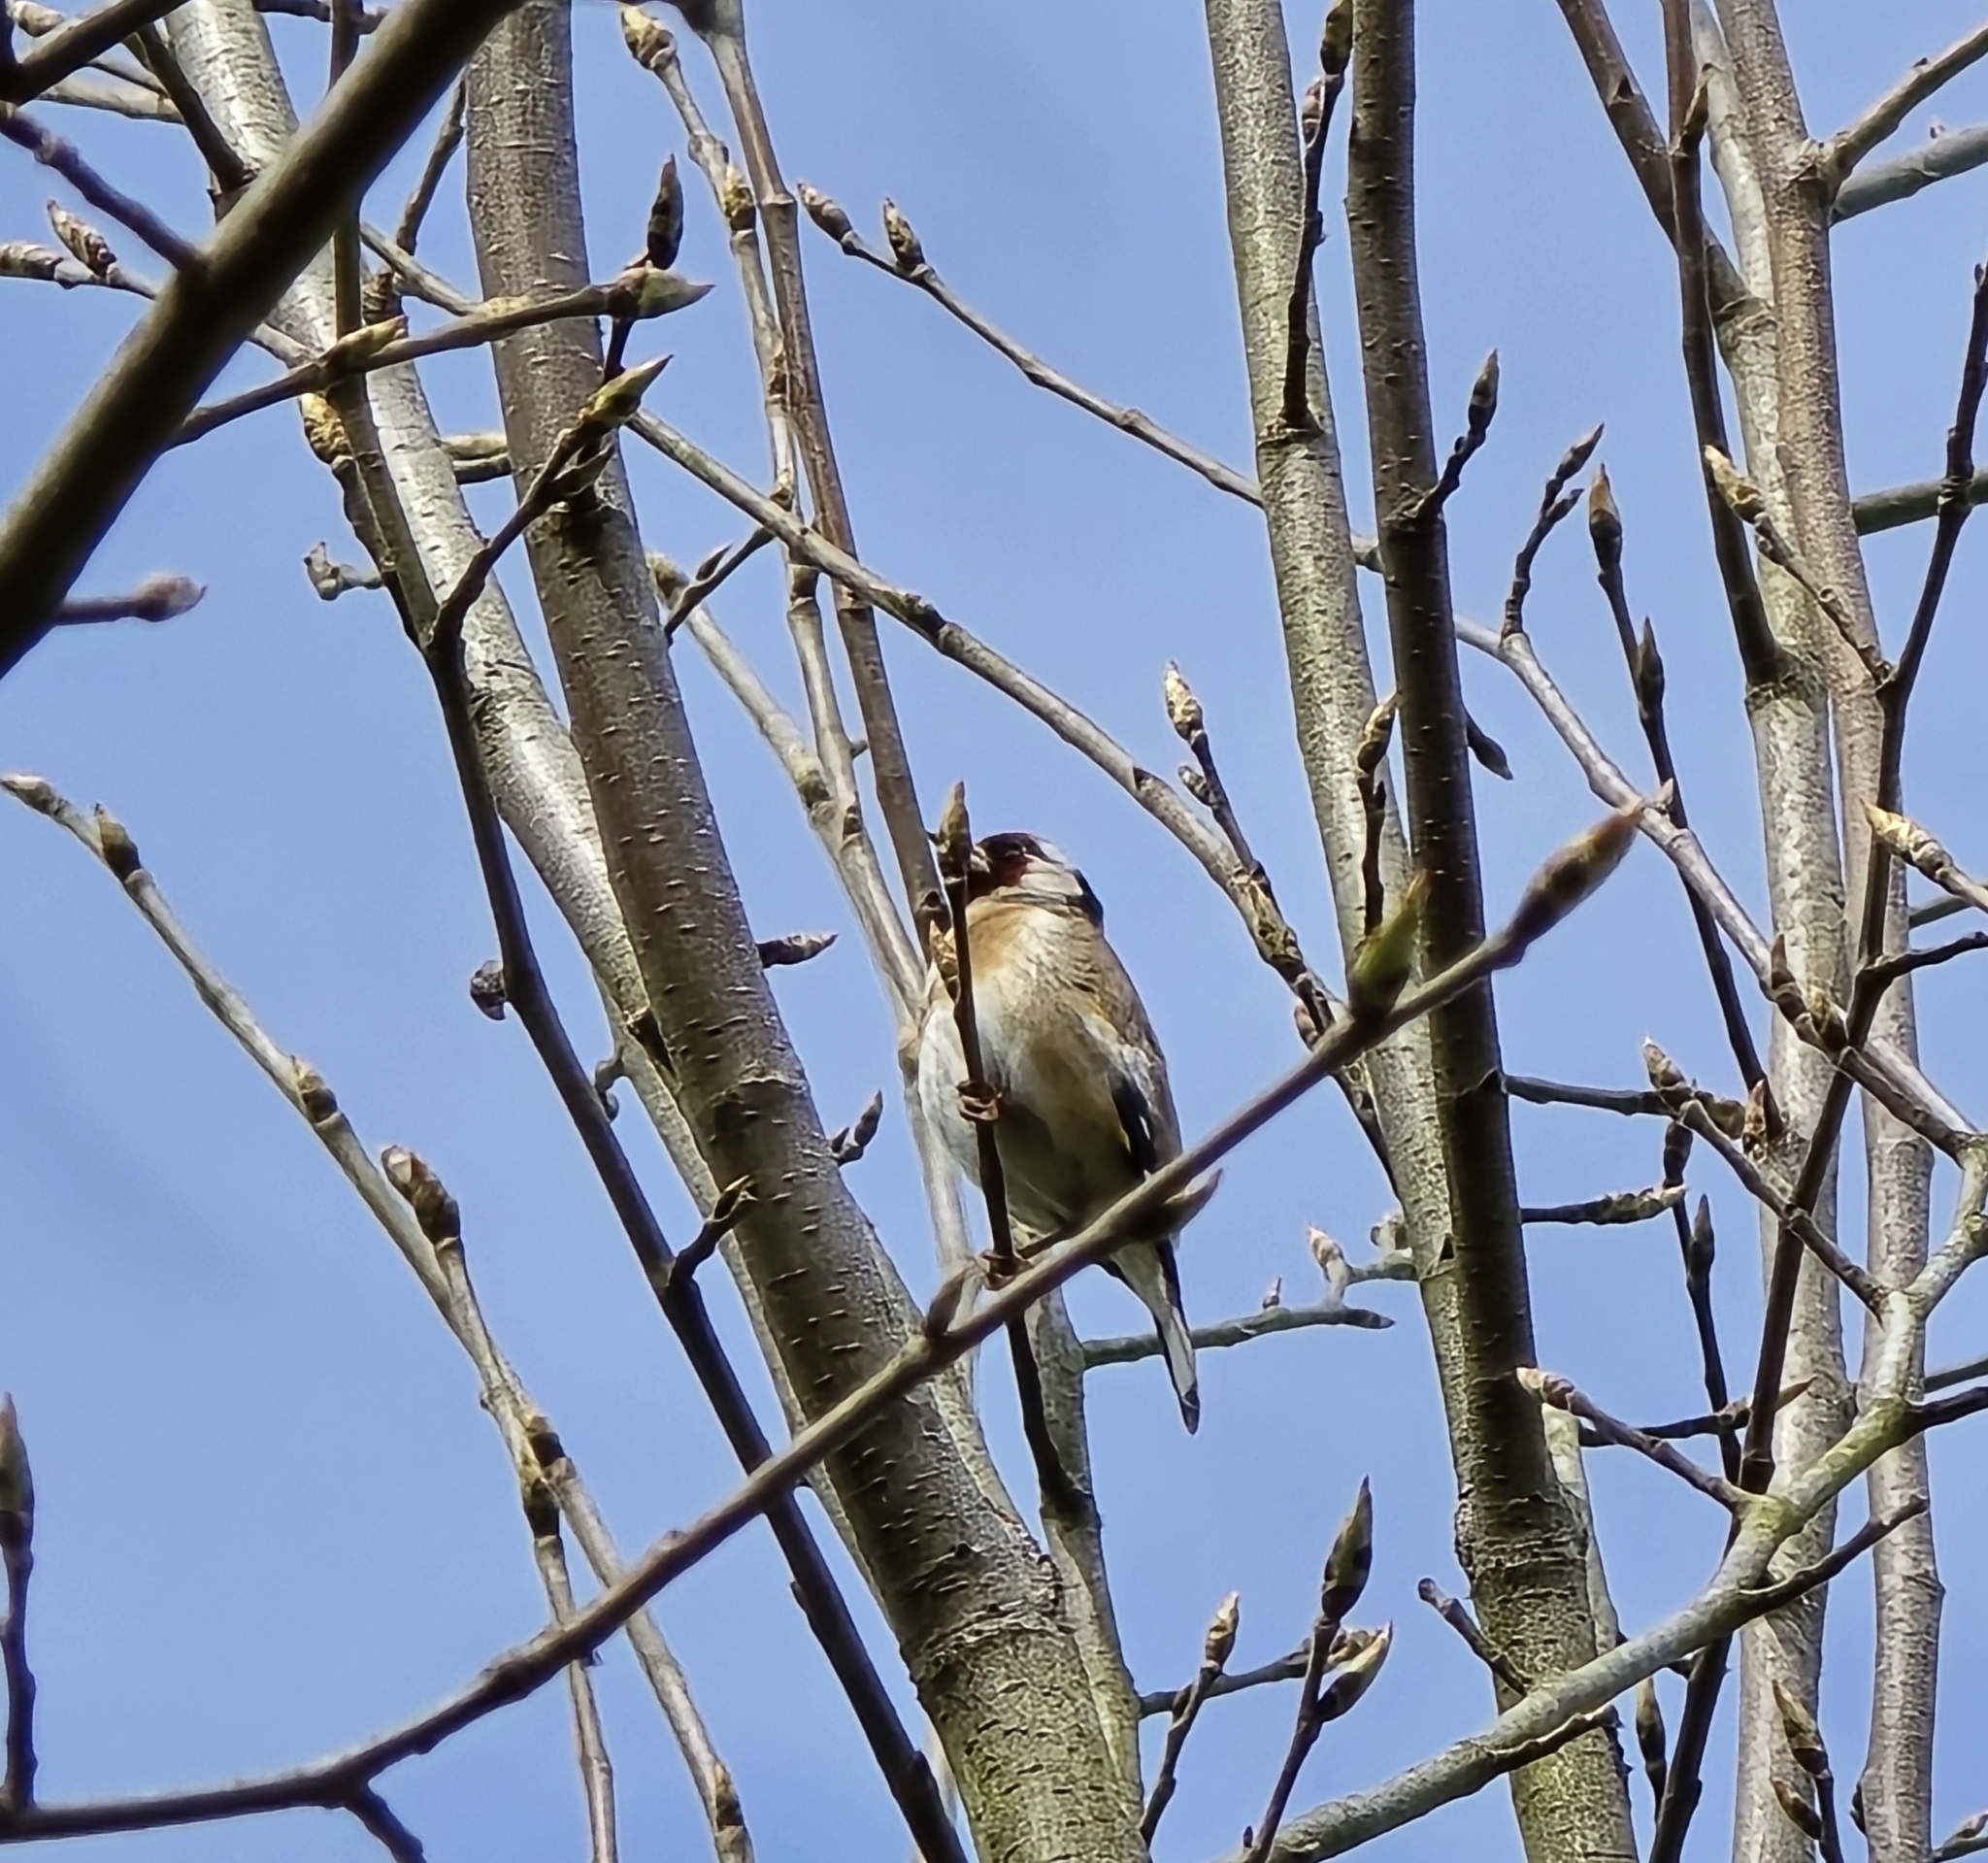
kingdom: Animalia
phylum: Chordata
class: Aves
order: Passeriformes
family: Fringillidae
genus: Carduelis
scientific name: Carduelis carduelis
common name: European goldfinch
